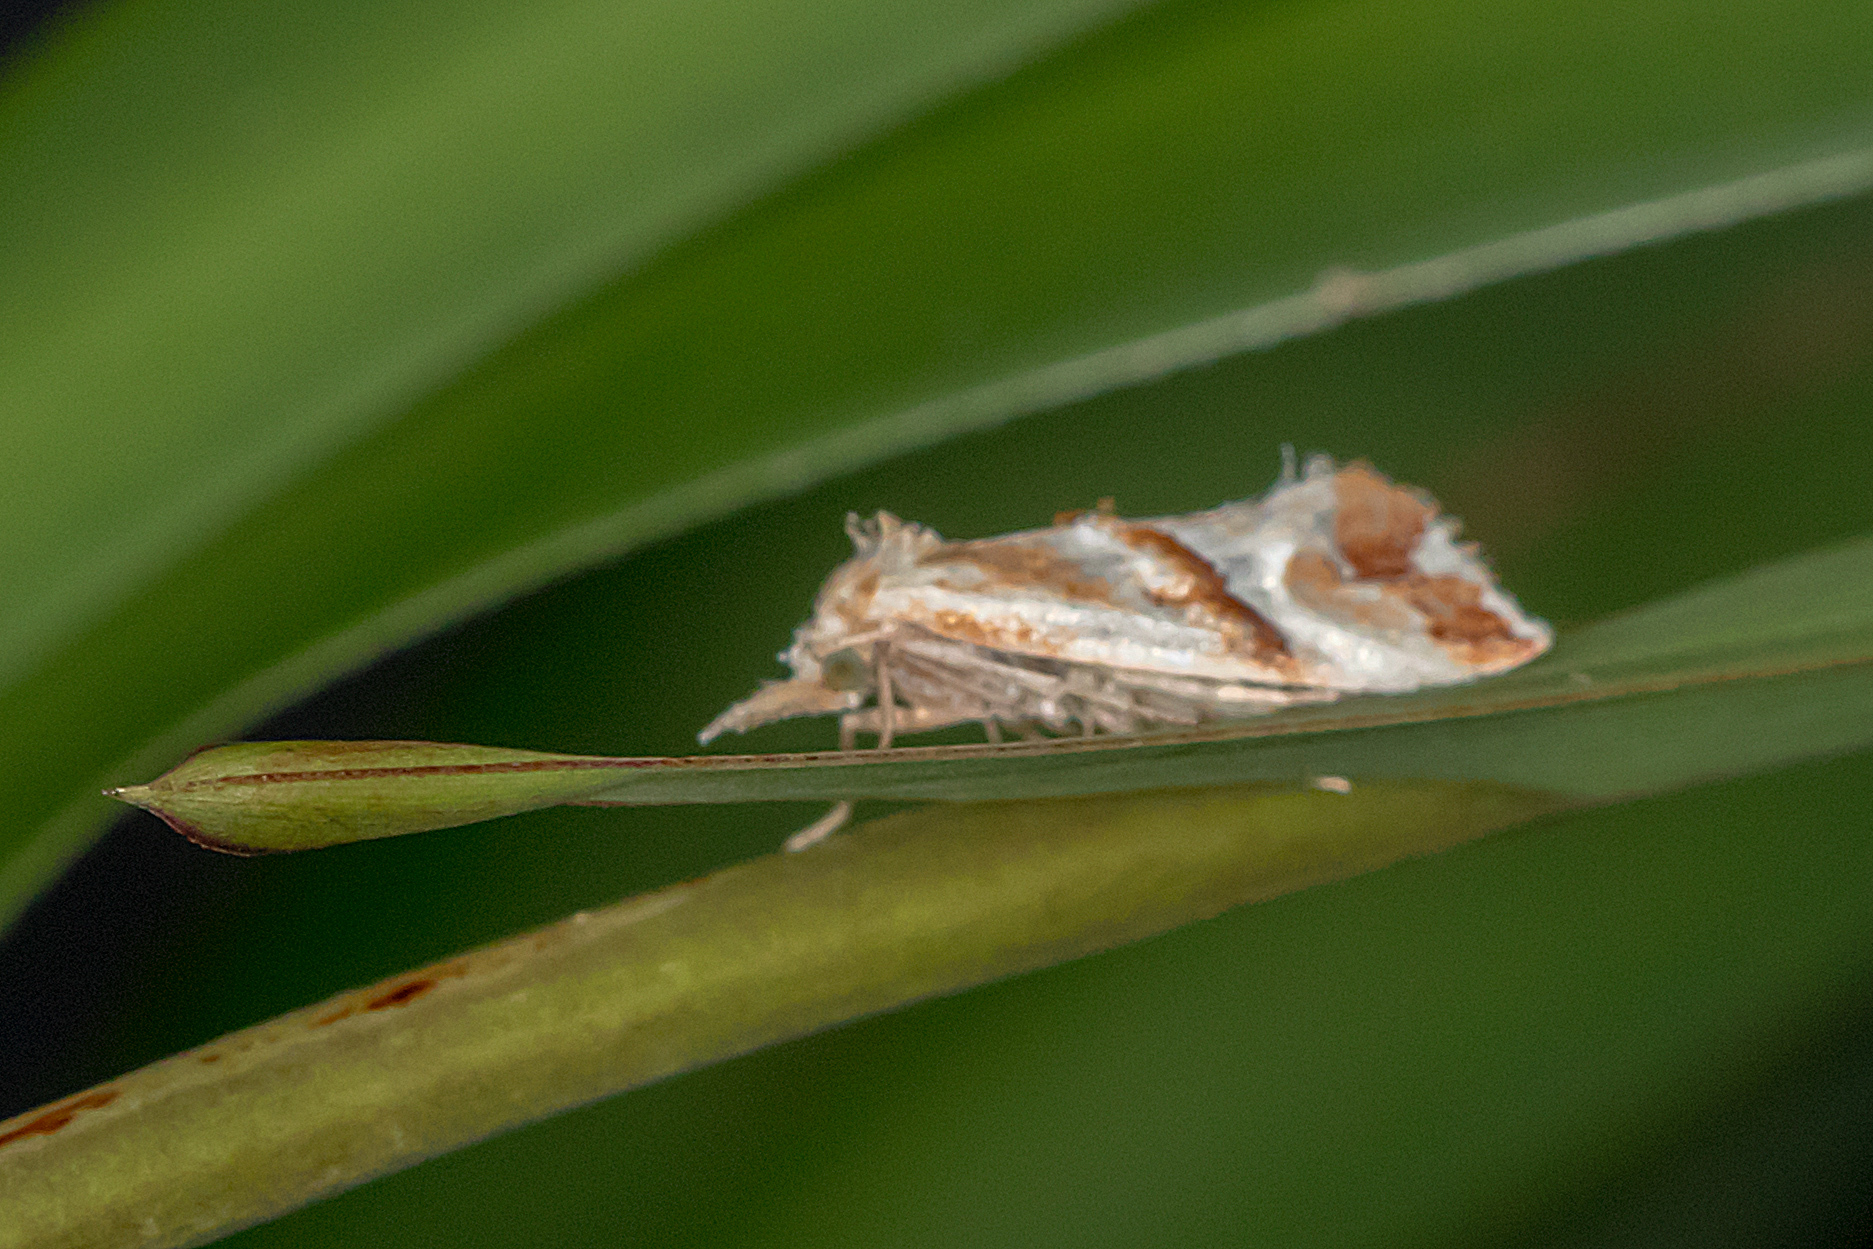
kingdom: Animalia
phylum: Arthropoda
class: Insecta
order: Lepidoptera
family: Tortricidae
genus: Heliocosma
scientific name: Heliocosma
